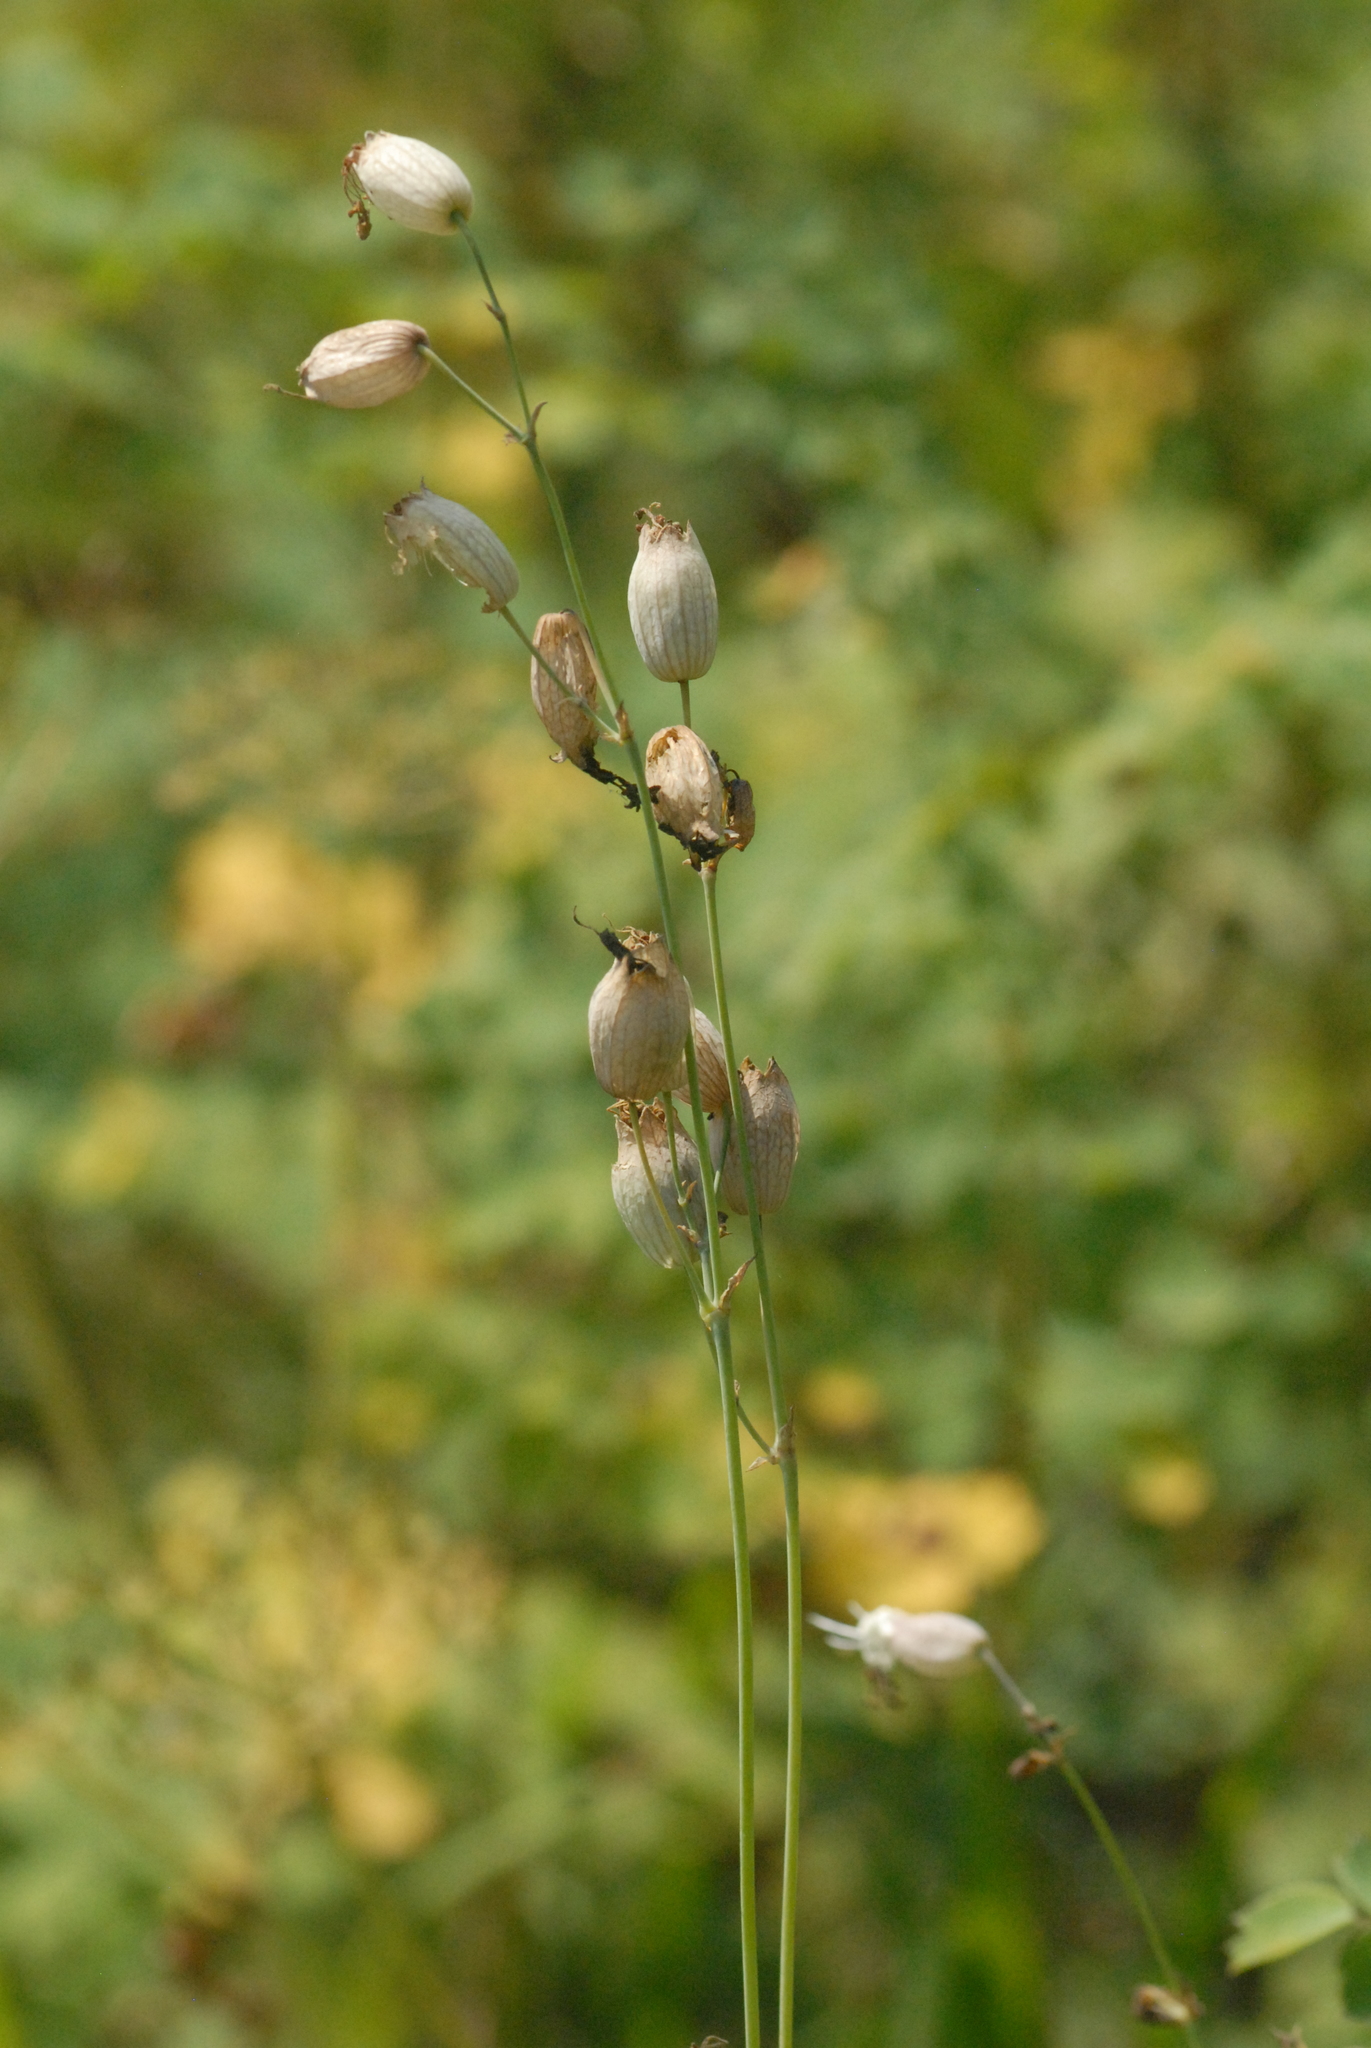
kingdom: Plantae
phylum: Tracheophyta
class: Magnoliopsida
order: Caryophyllales
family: Caryophyllaceae
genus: Silene
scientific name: Silene vulgaris
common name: Bladder campion
